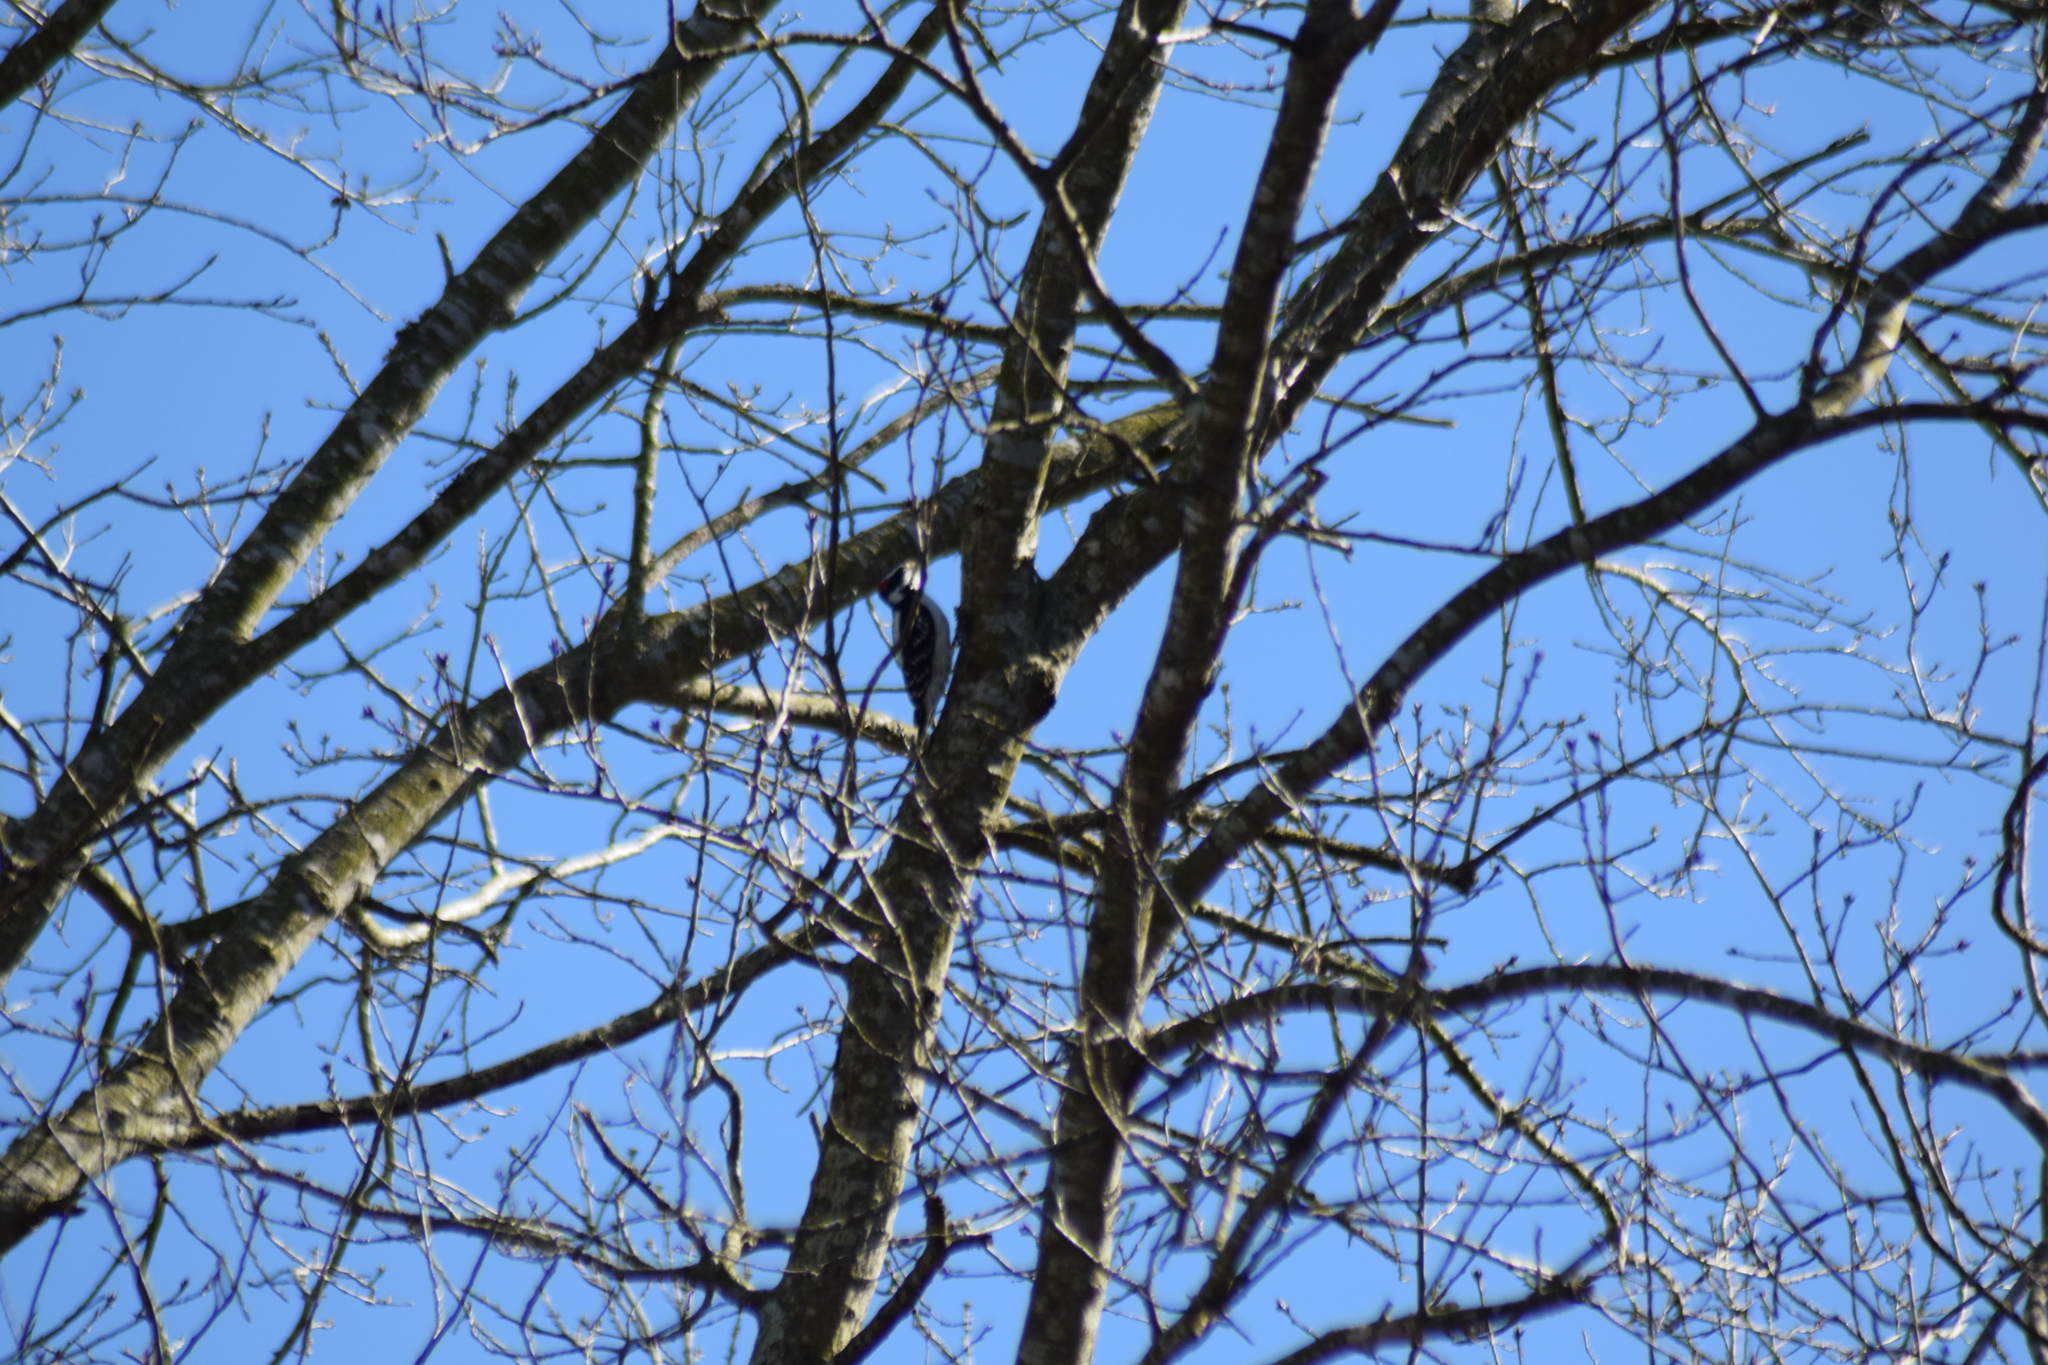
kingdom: Animalia
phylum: Chordata
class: Aves
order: Piciformes
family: Picidae
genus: Dryobates
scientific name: Dryobates
